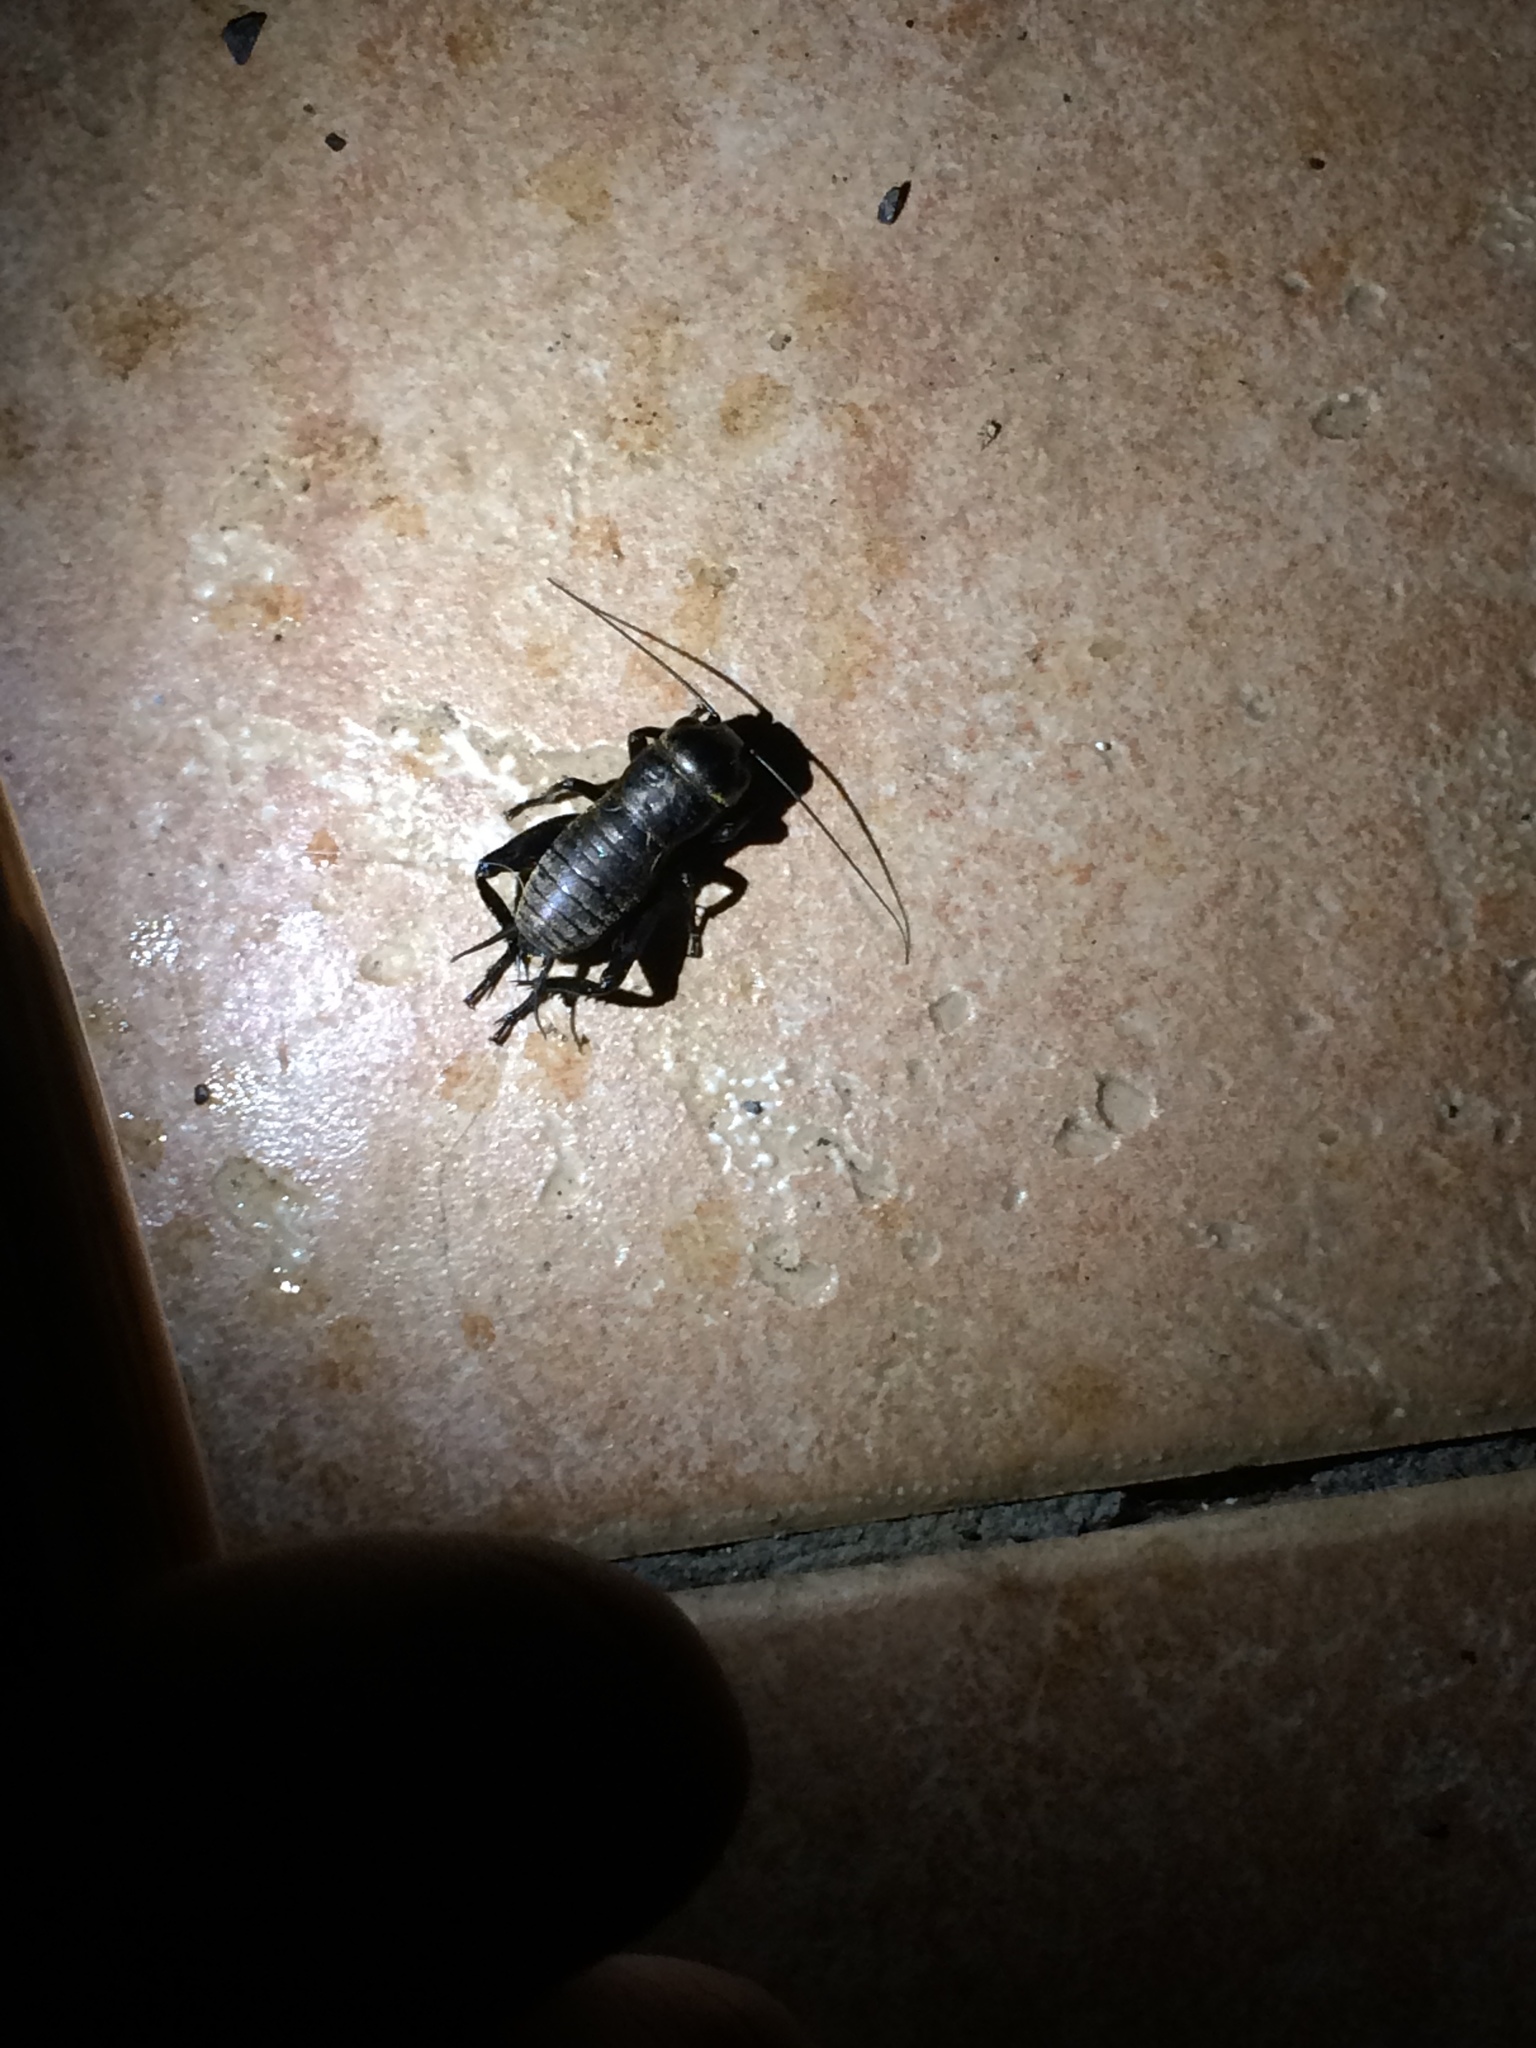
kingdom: Animalia
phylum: Arthropoda
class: Insecta
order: Orthoptera
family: Gryllidae
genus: Gryllus
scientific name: Gryllus campestris
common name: Field cricket
